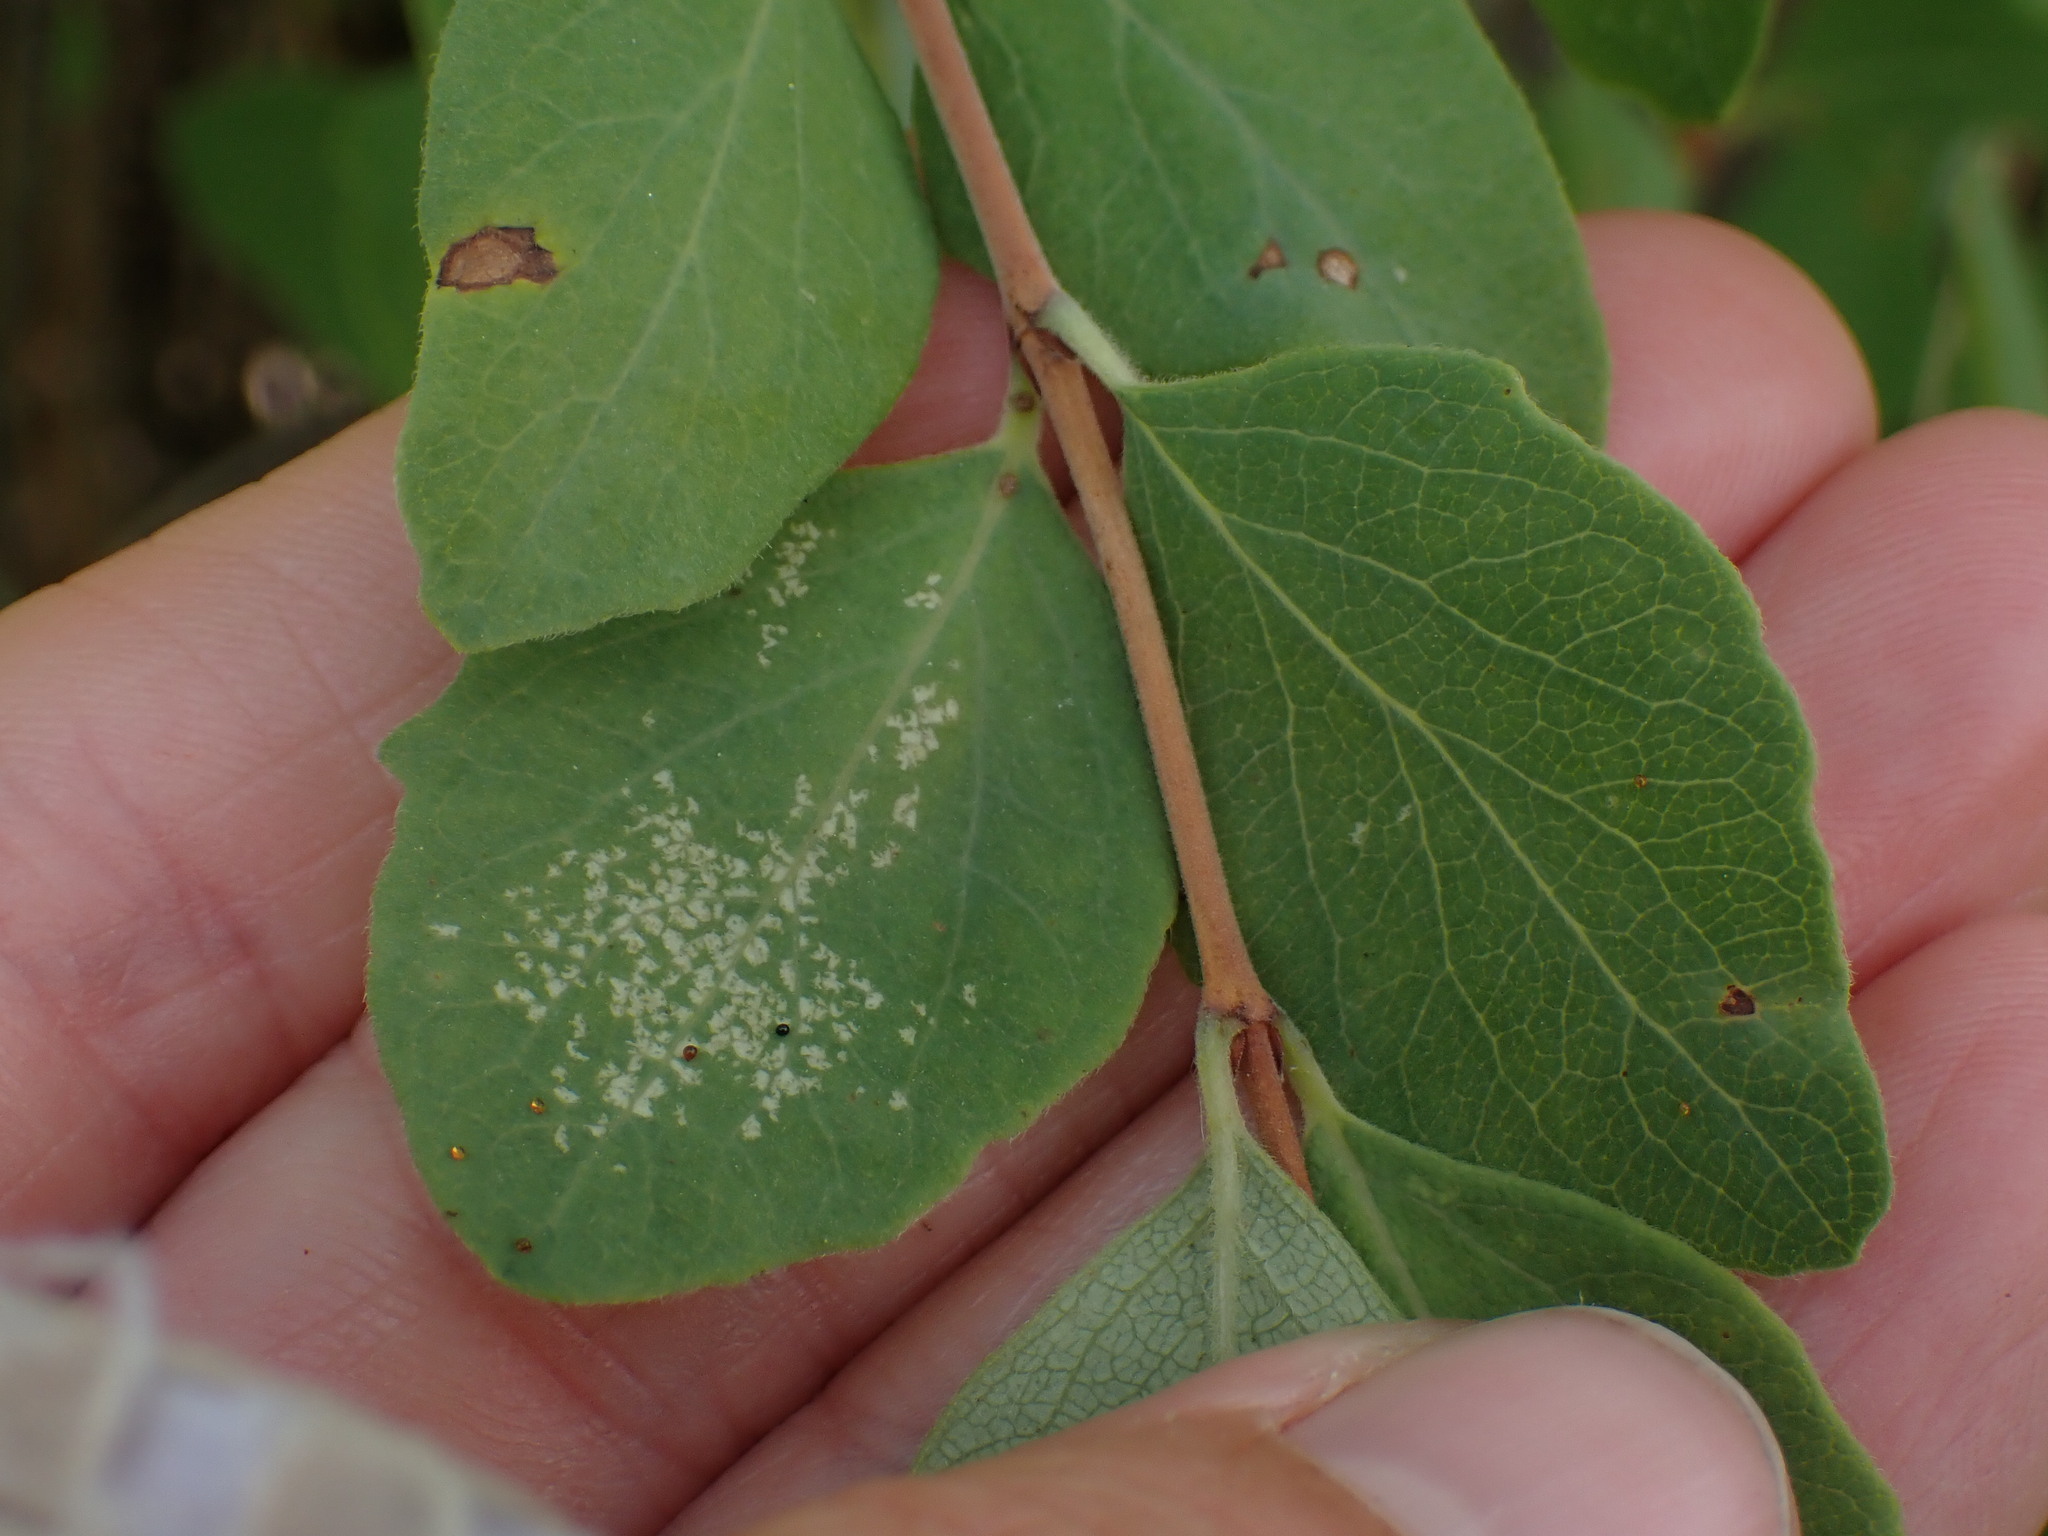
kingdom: Plantae
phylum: Tracheophyta
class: Magnoliopsida
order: Dipsacales
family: Caprifoliaceae
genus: Symphoricarpos
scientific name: Symphoricarpos occidentalis
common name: Wolfberry
